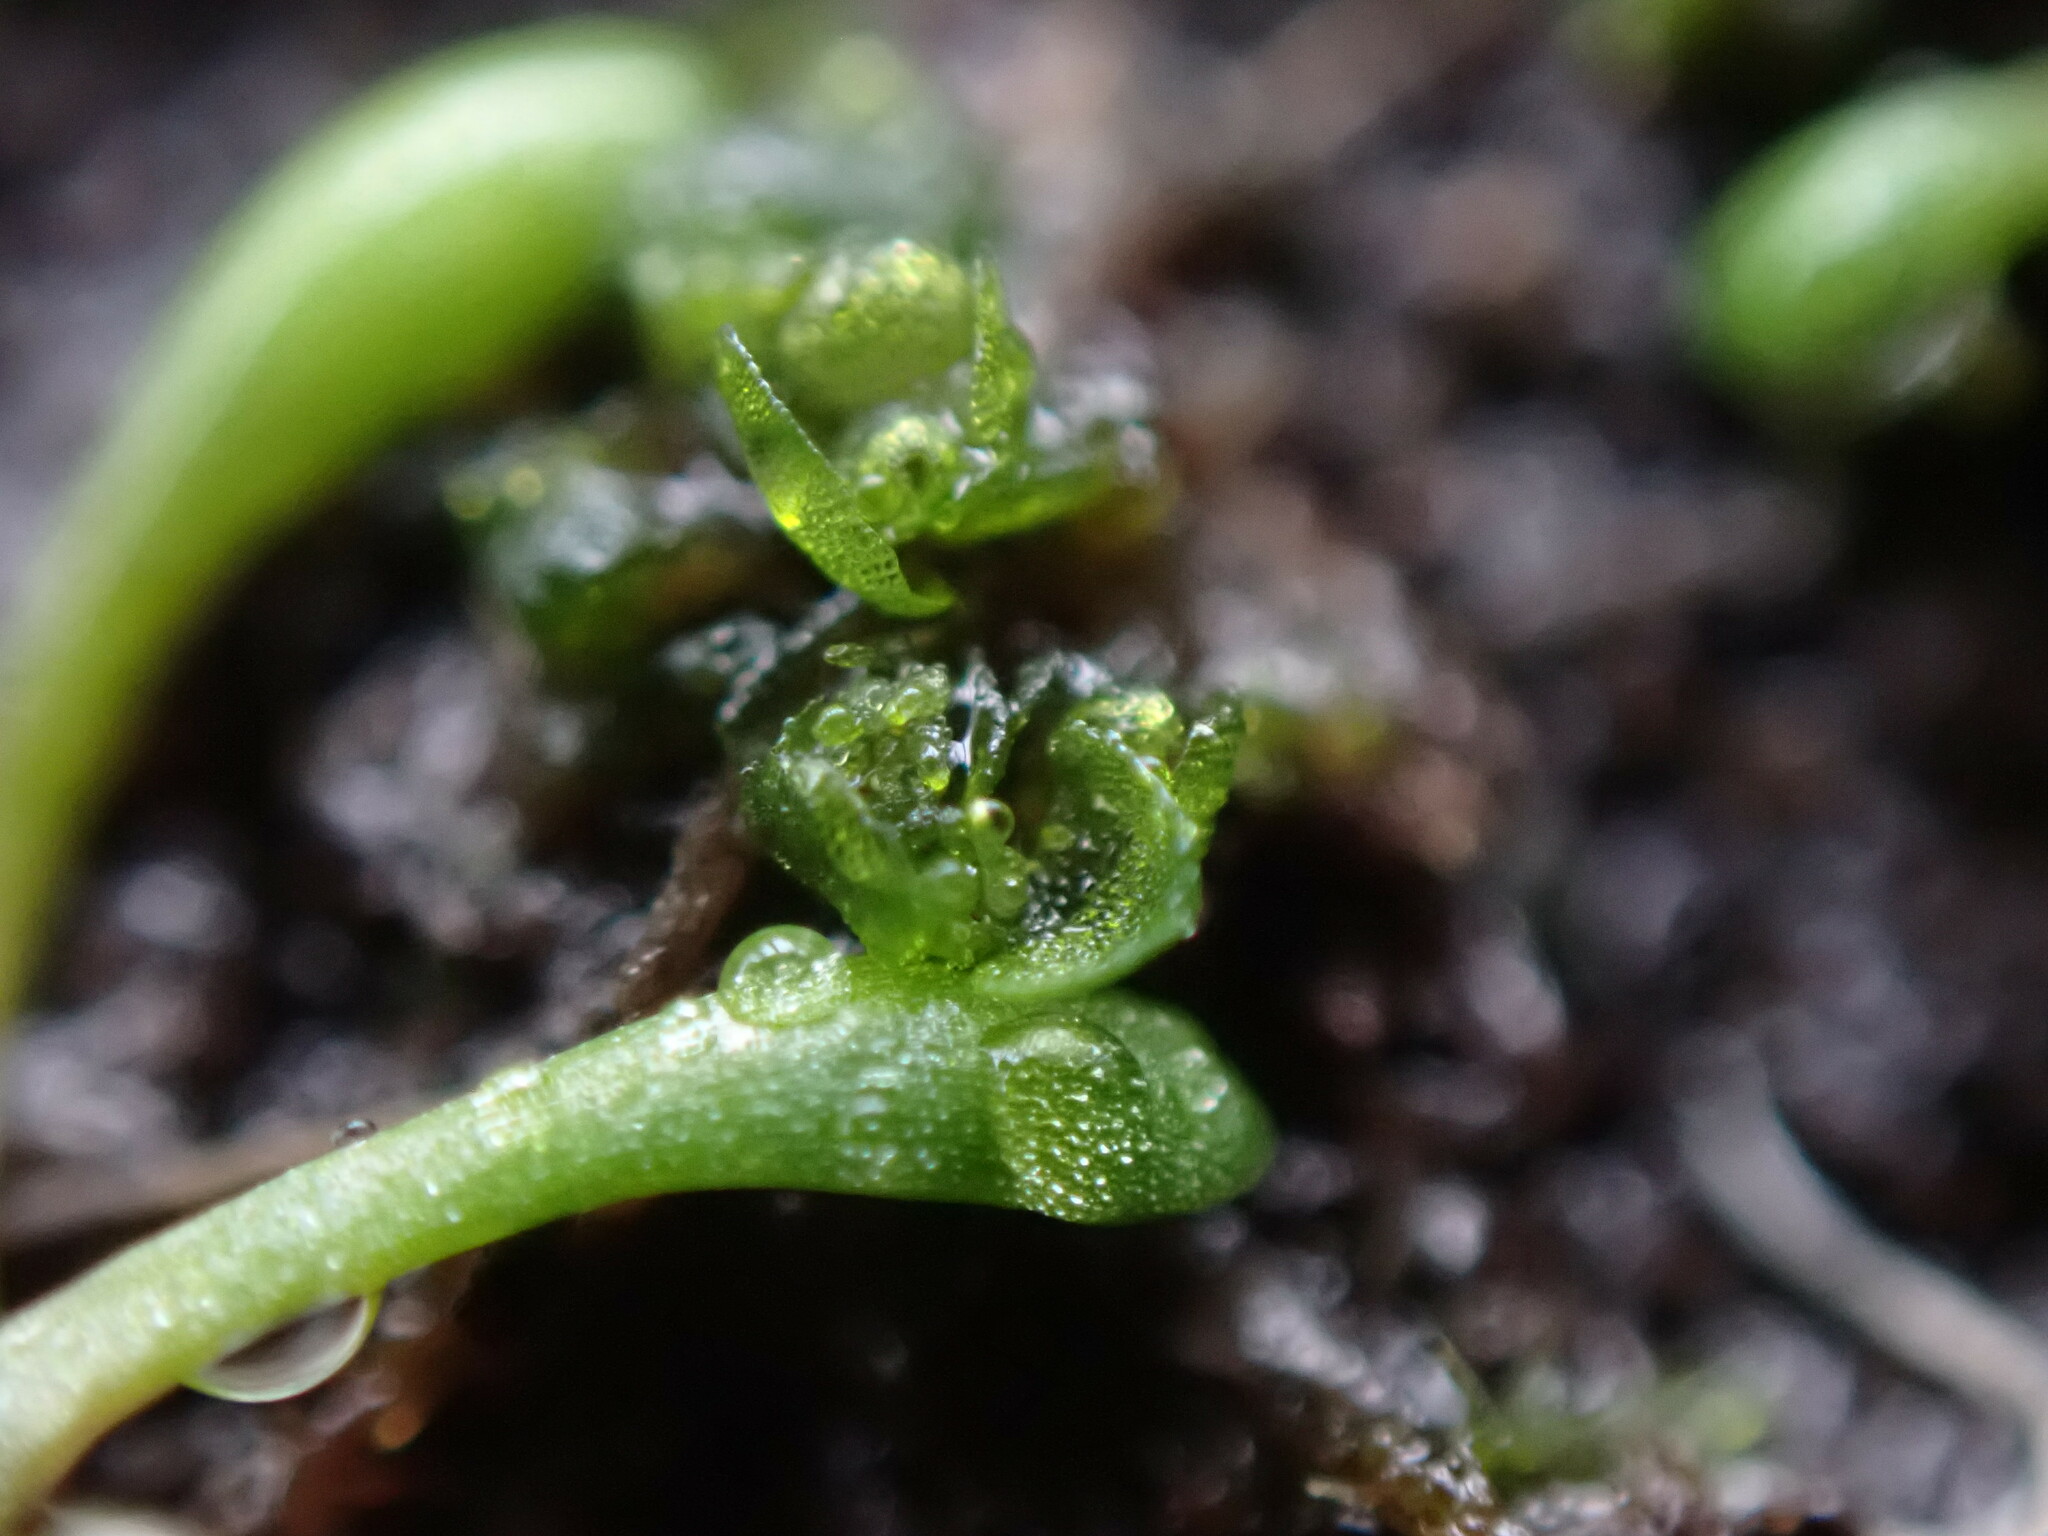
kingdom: Plantae
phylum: Marchantiophyta
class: Marchantiopsida
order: Sphaerocarpales
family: Sphaerocarpaceae
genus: Sphaerocarpos
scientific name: Sphaerocarpos texanus
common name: Texas balloonwort
